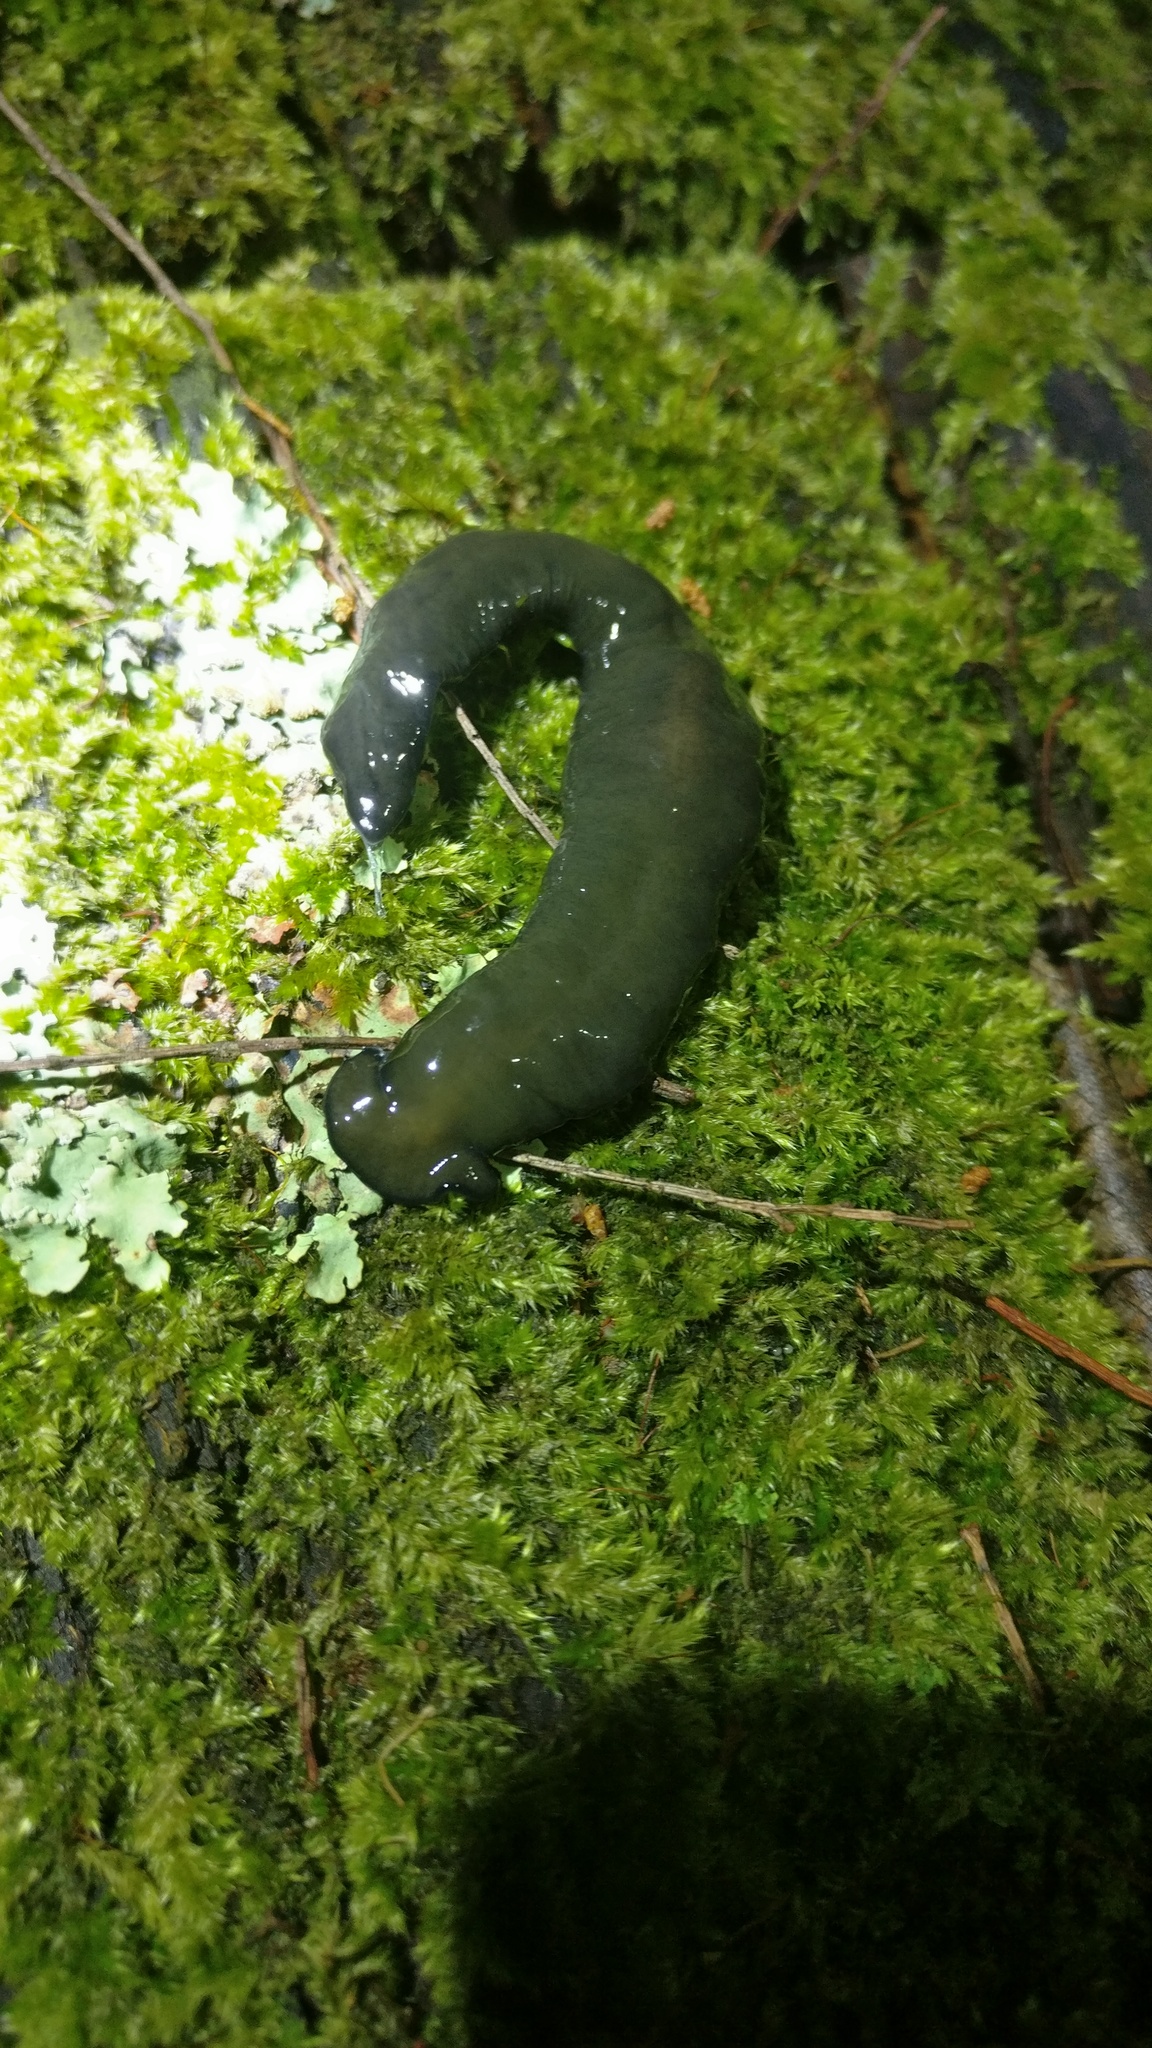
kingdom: Animalia
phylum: Platyhelminthes
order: Tricladida
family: Geoplanidae
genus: Bipalium
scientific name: Bipalium univittatum
